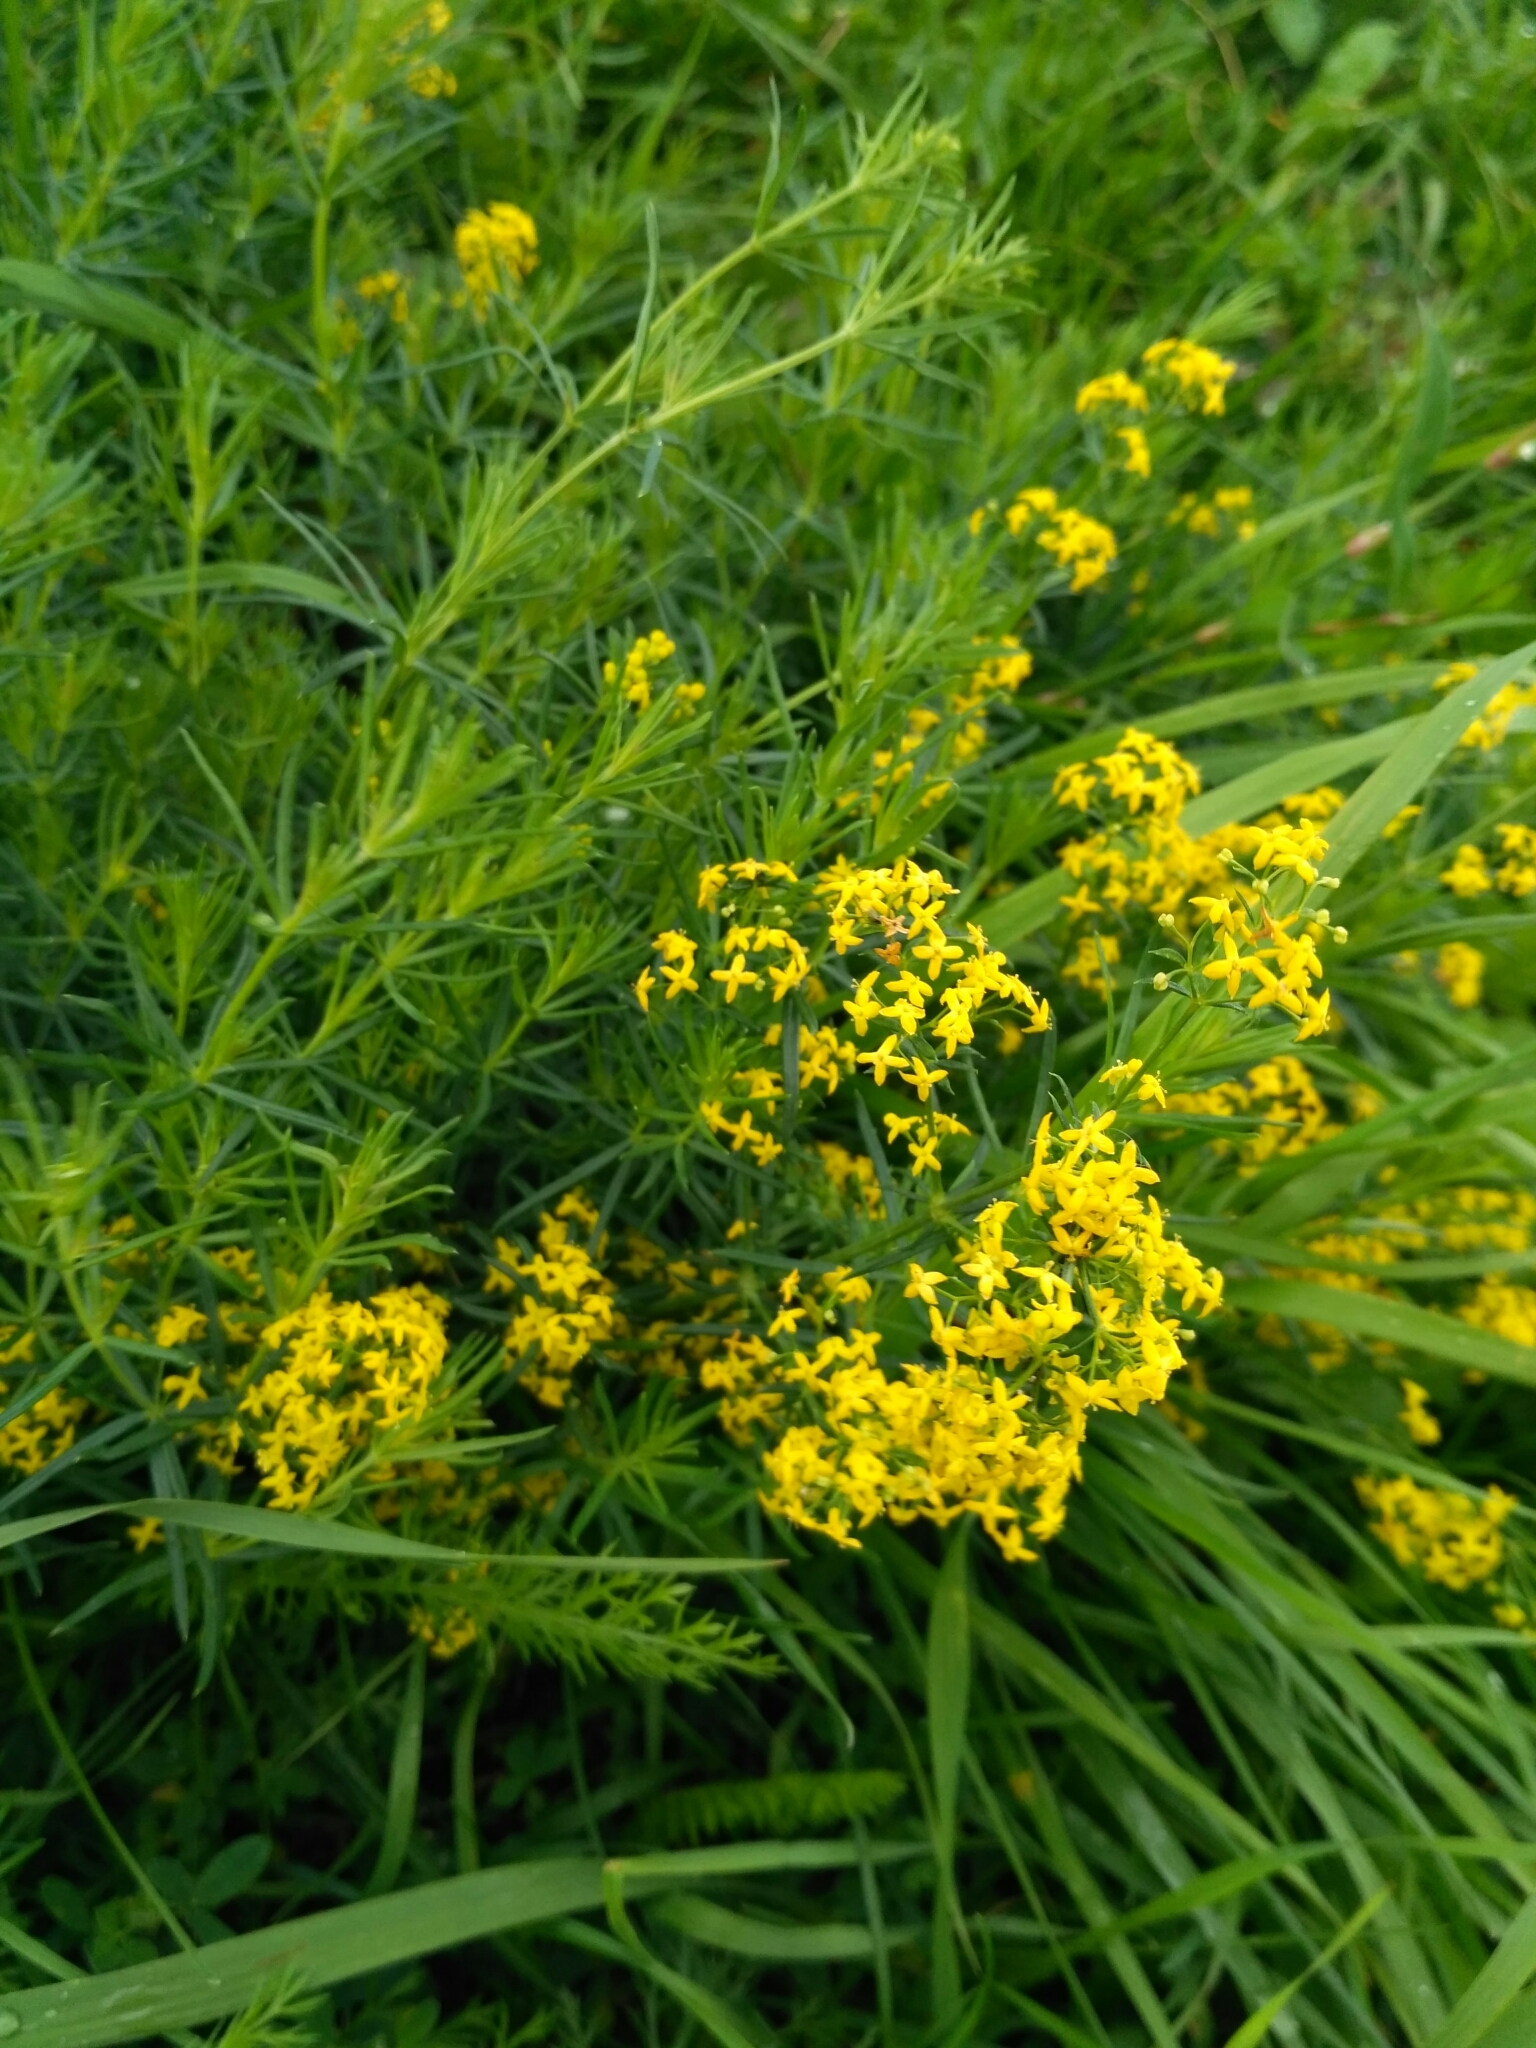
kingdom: Plantae
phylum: Tracheophyta
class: Magnoliopsida
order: Gentianales
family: Rubiaceae
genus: Galium
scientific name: Galium verum
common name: Lady's bedstraw
